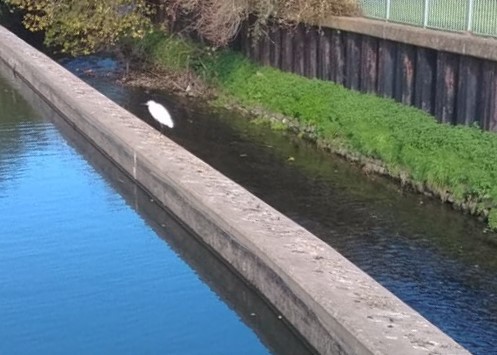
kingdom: Animalia
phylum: Chordata
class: Aves
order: Pelecaniformes
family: Ardeidae
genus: Egretta
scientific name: Egretta garzetta
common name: Little egret
